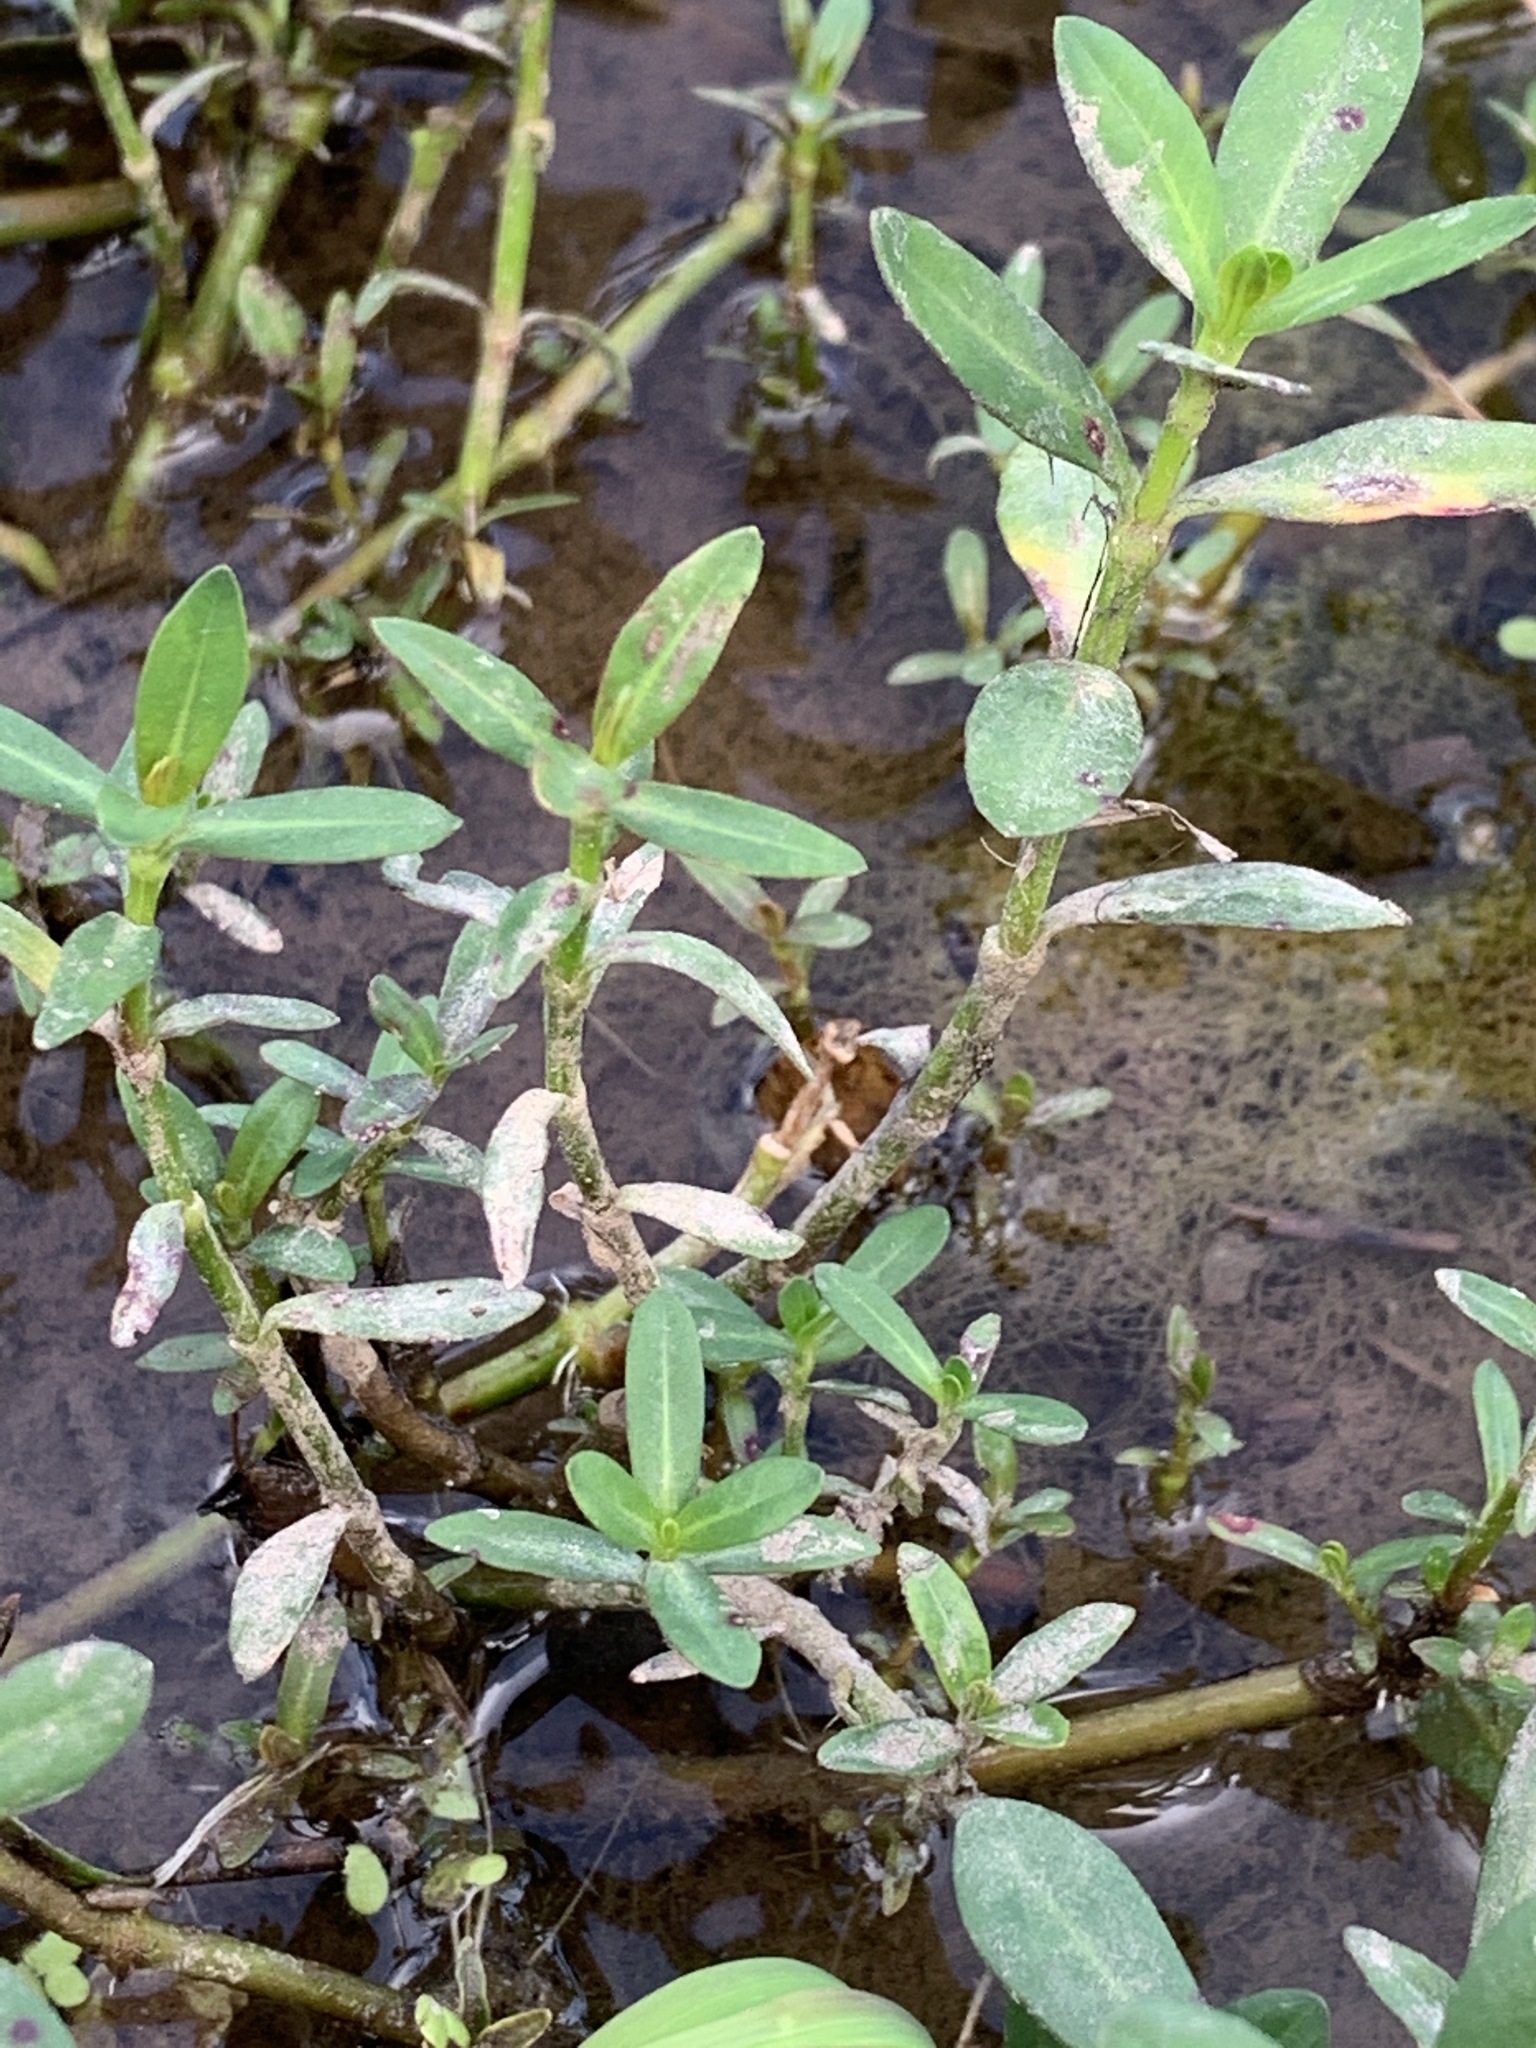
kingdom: Plantae
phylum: Tracheophyta
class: Magnoliopsida
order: Caryophyllales
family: Amaranthaceae
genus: Alternanthera
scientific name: Alternanthera philoxeroides
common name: Alligatorweed
